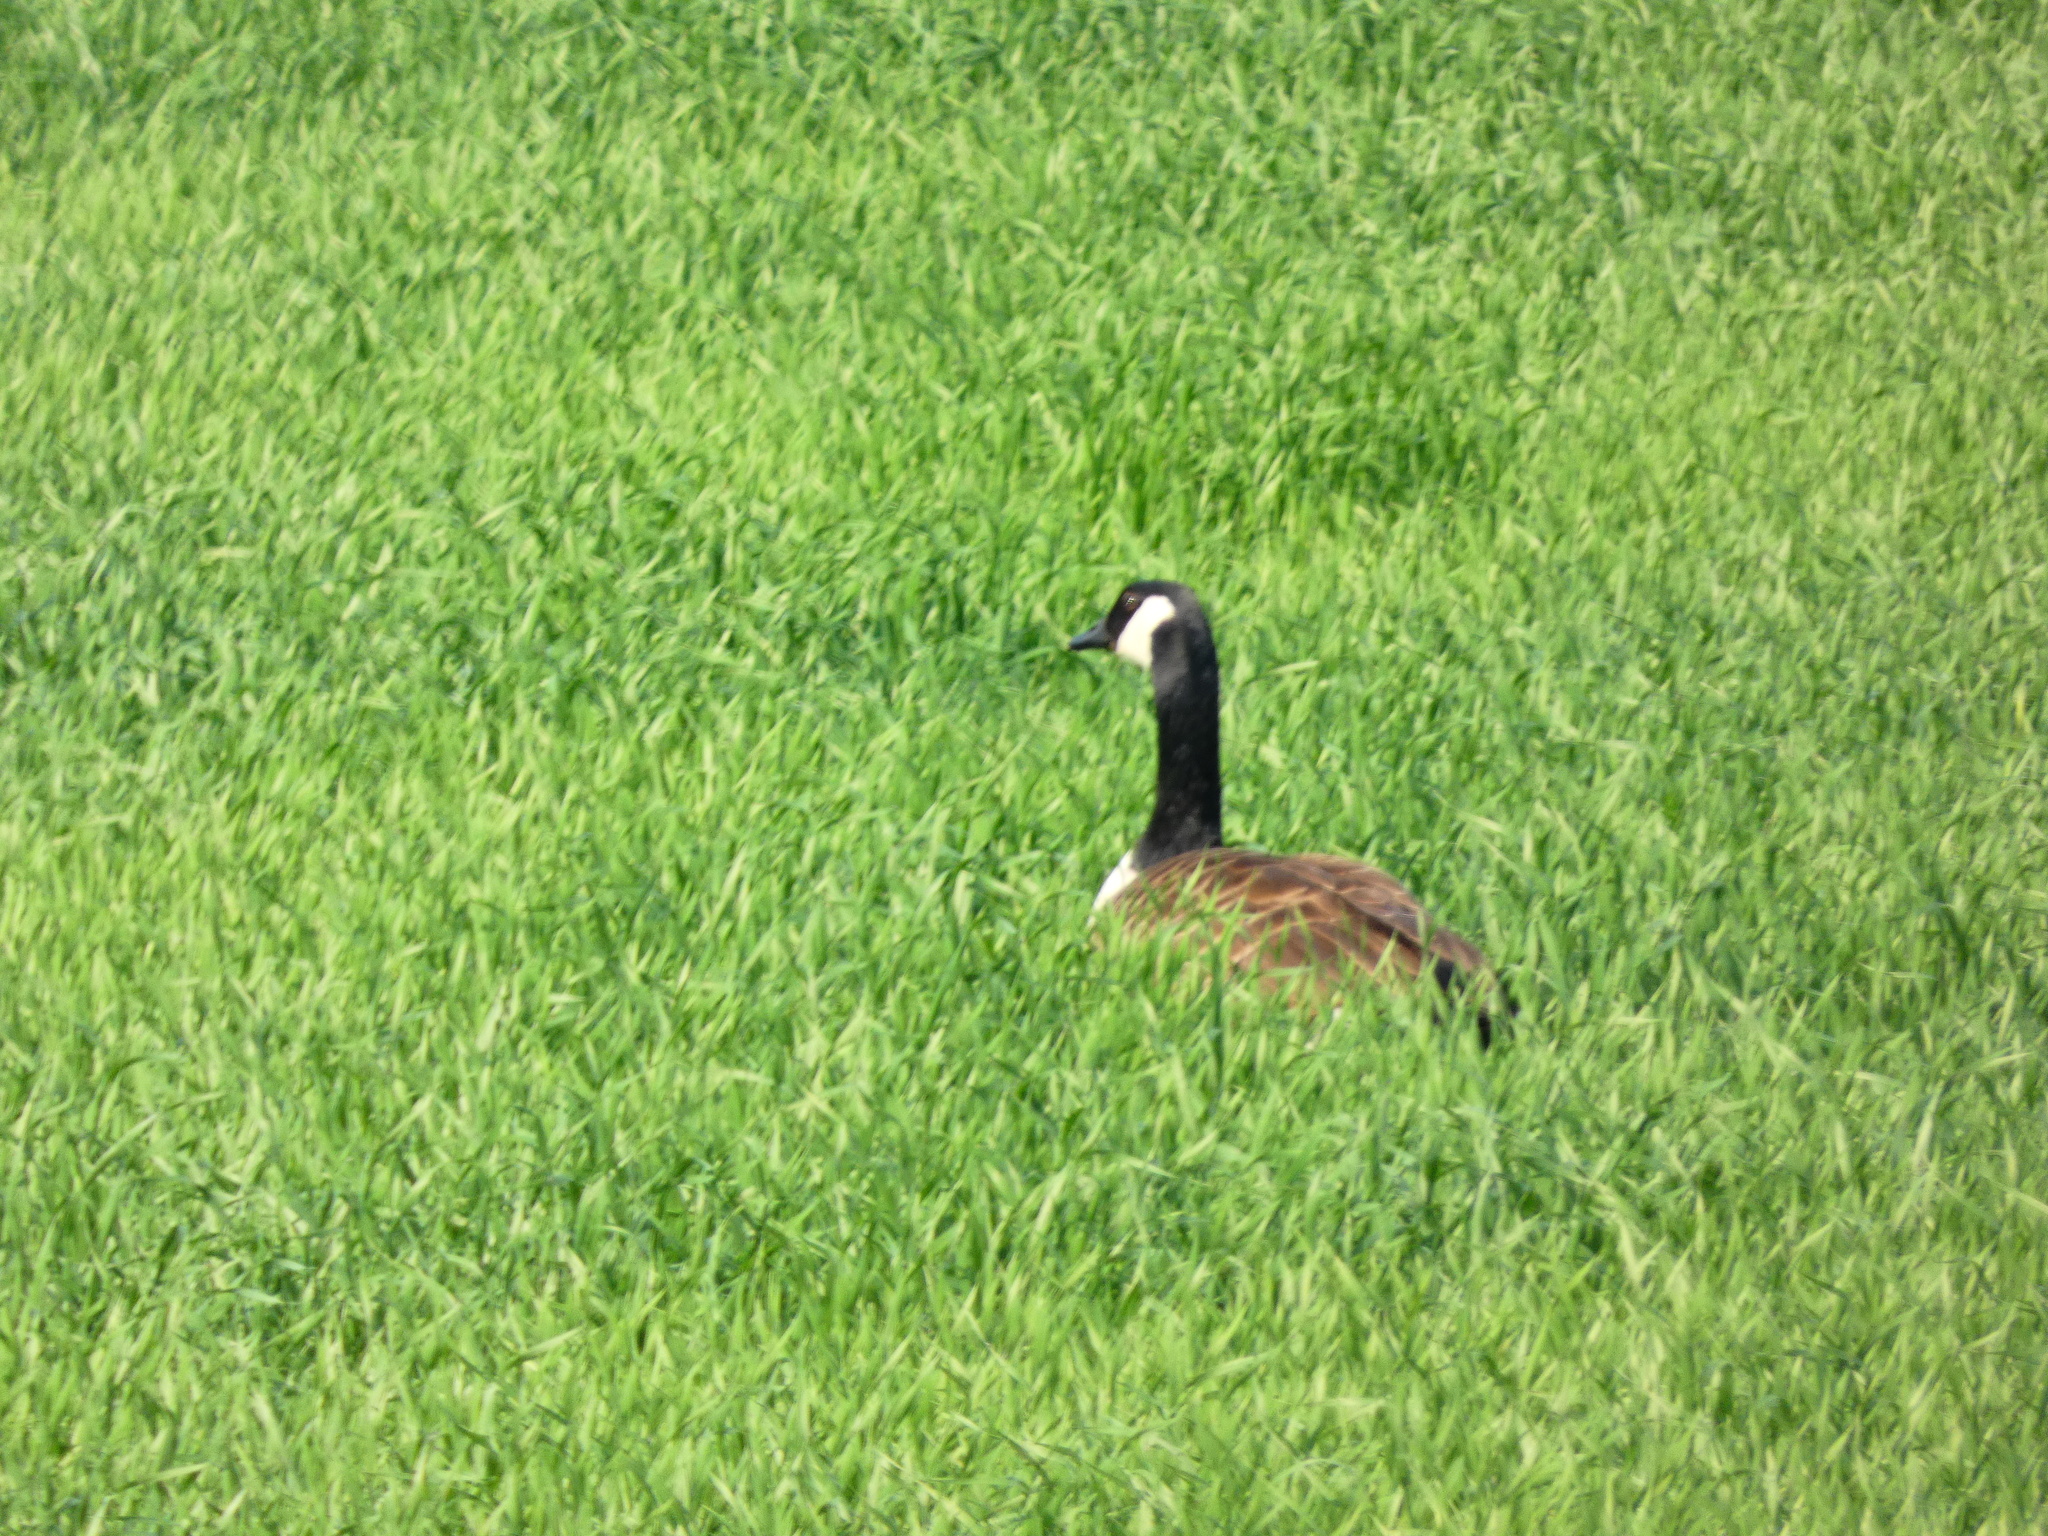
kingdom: Animalia
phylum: Chordata
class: Aves
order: Anseriformes
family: Anatidae
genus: Branta
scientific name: Branta canadensis
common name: Canada goose
